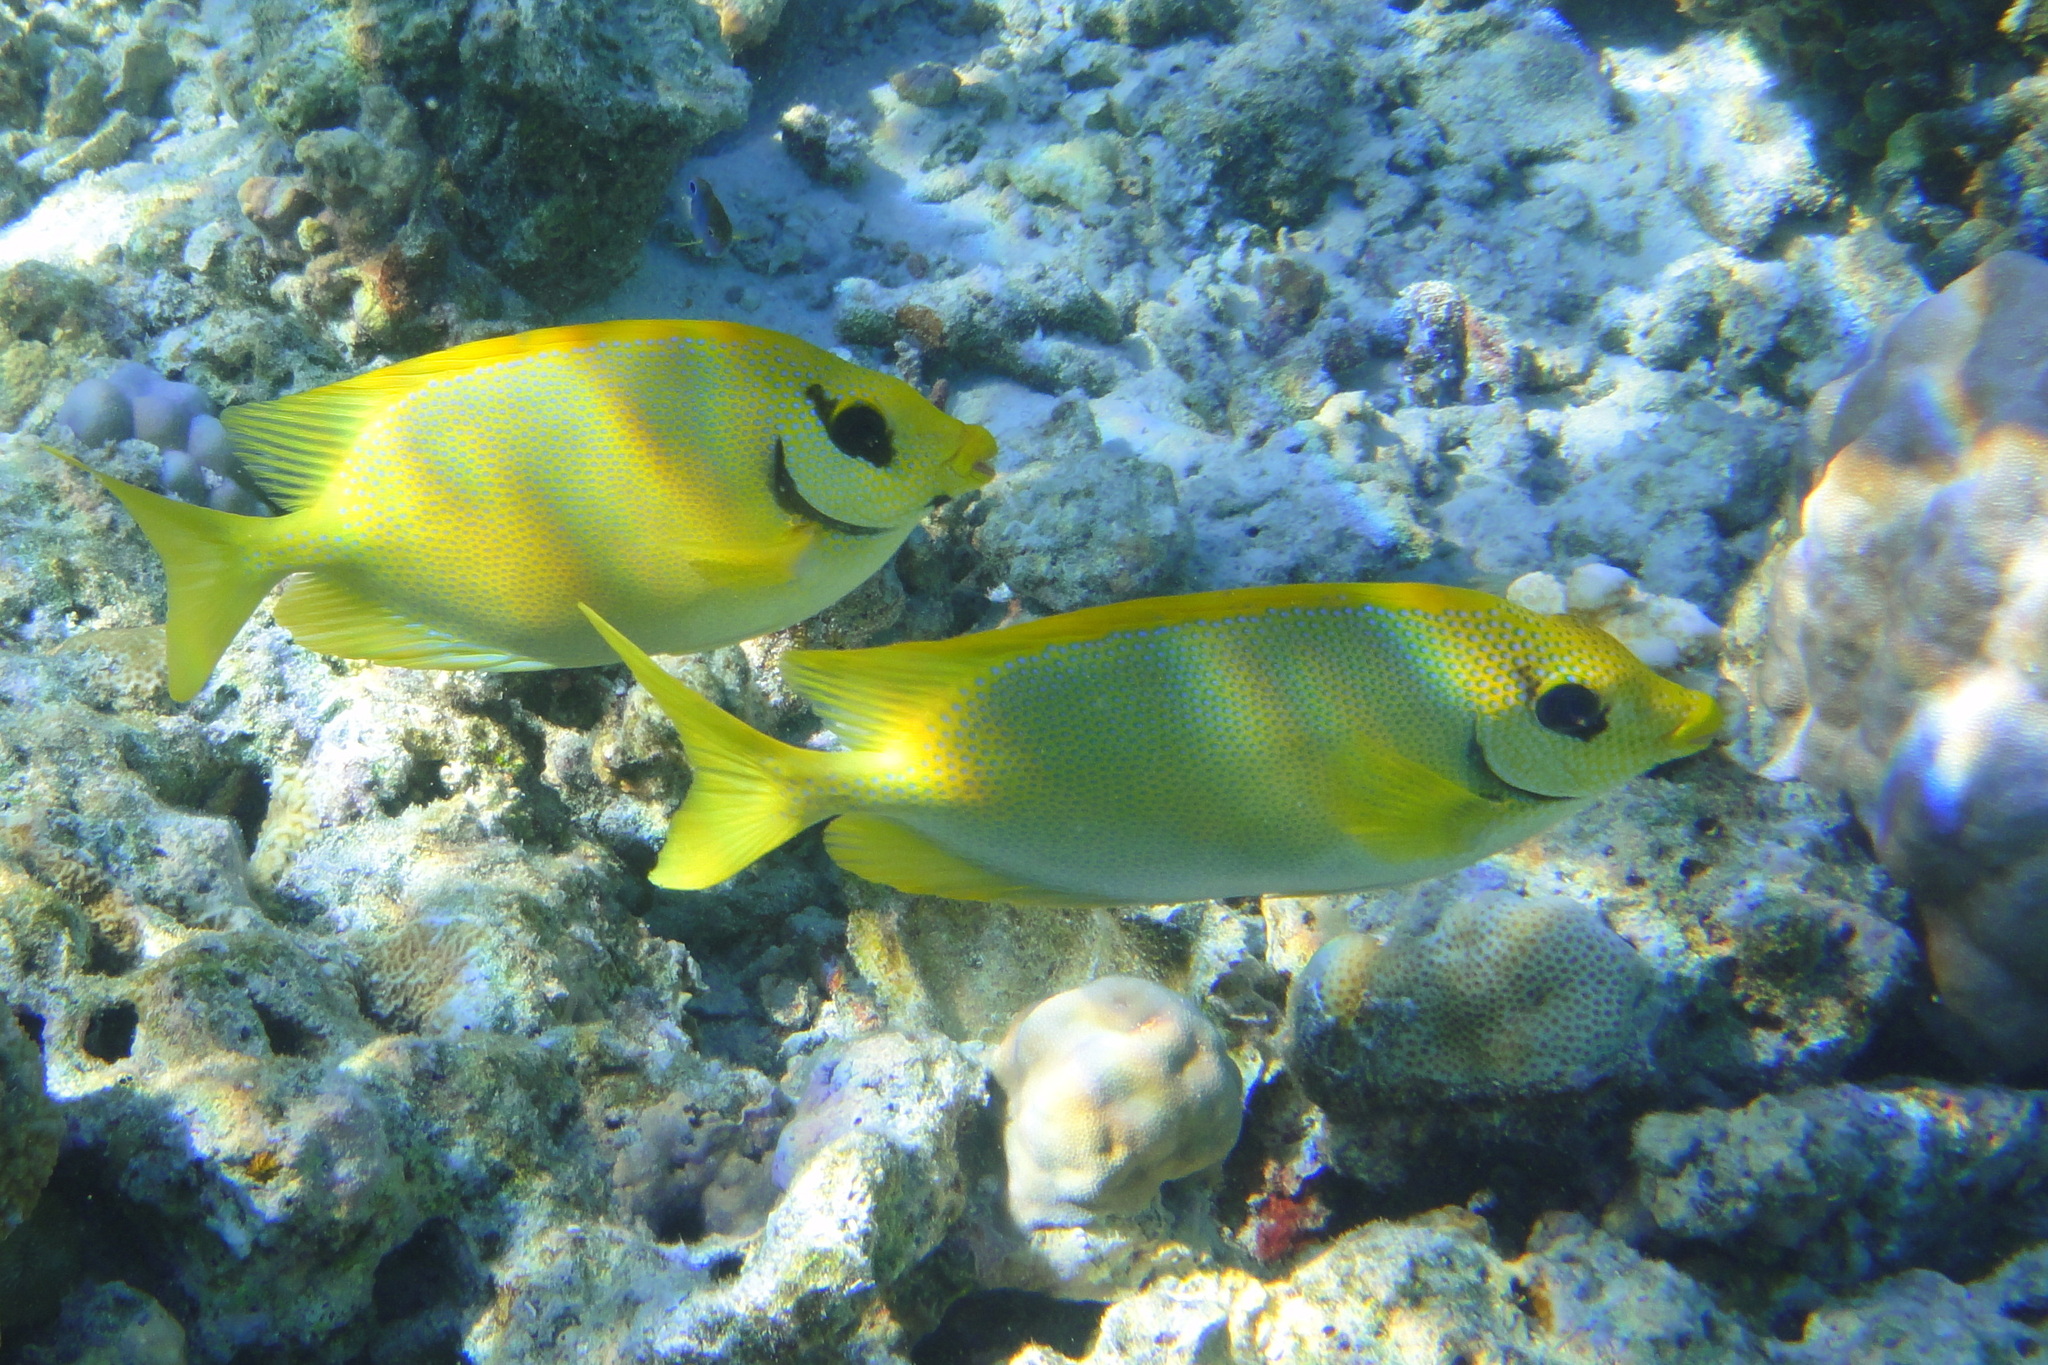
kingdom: Animalia
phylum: Chordata
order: Perciformes
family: Siganidae
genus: Siganus
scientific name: Siganus corallinus
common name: Coral rabbitfish
